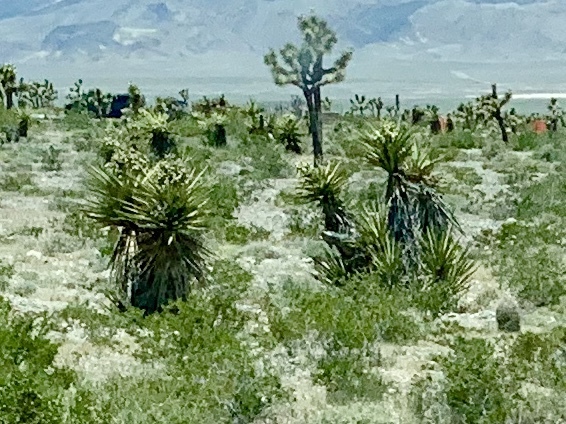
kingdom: Plantae
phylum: Tracheophyta
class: Liliopsida
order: Asparagales
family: Asparagaceae
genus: Yucca
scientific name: Yucca schidigera
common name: Mojave yucca
